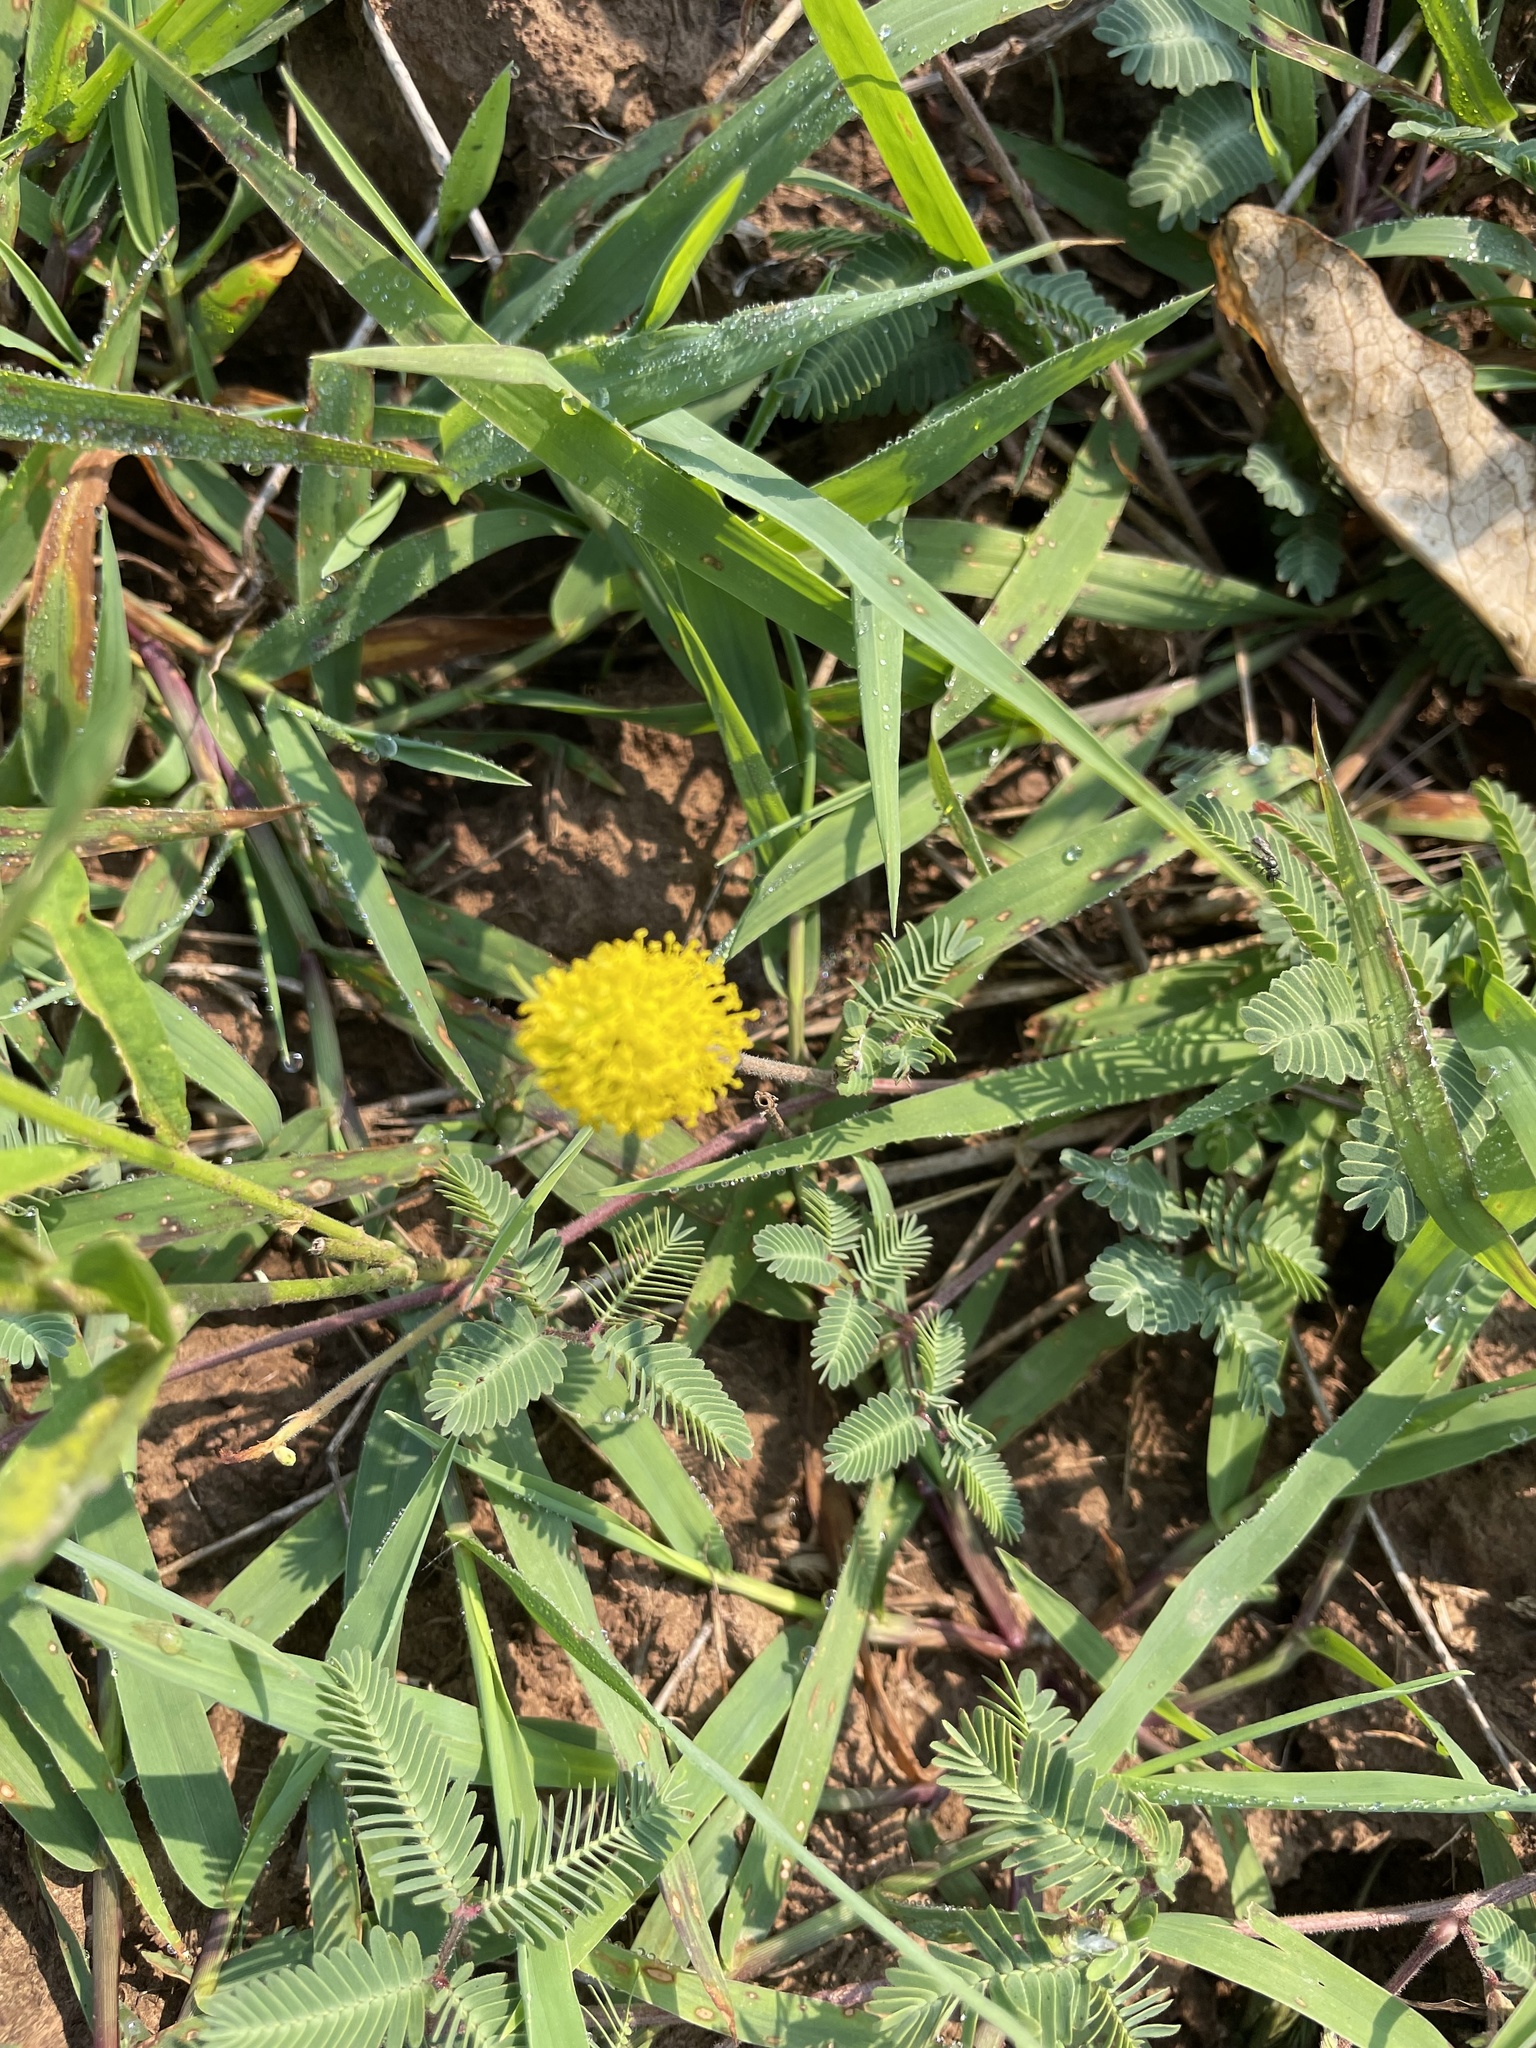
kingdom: Plantae
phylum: Tracheophyta
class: Magnoliopsida
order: Fabales
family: Fabaceae
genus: Neptunia
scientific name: Neptunia lutea
